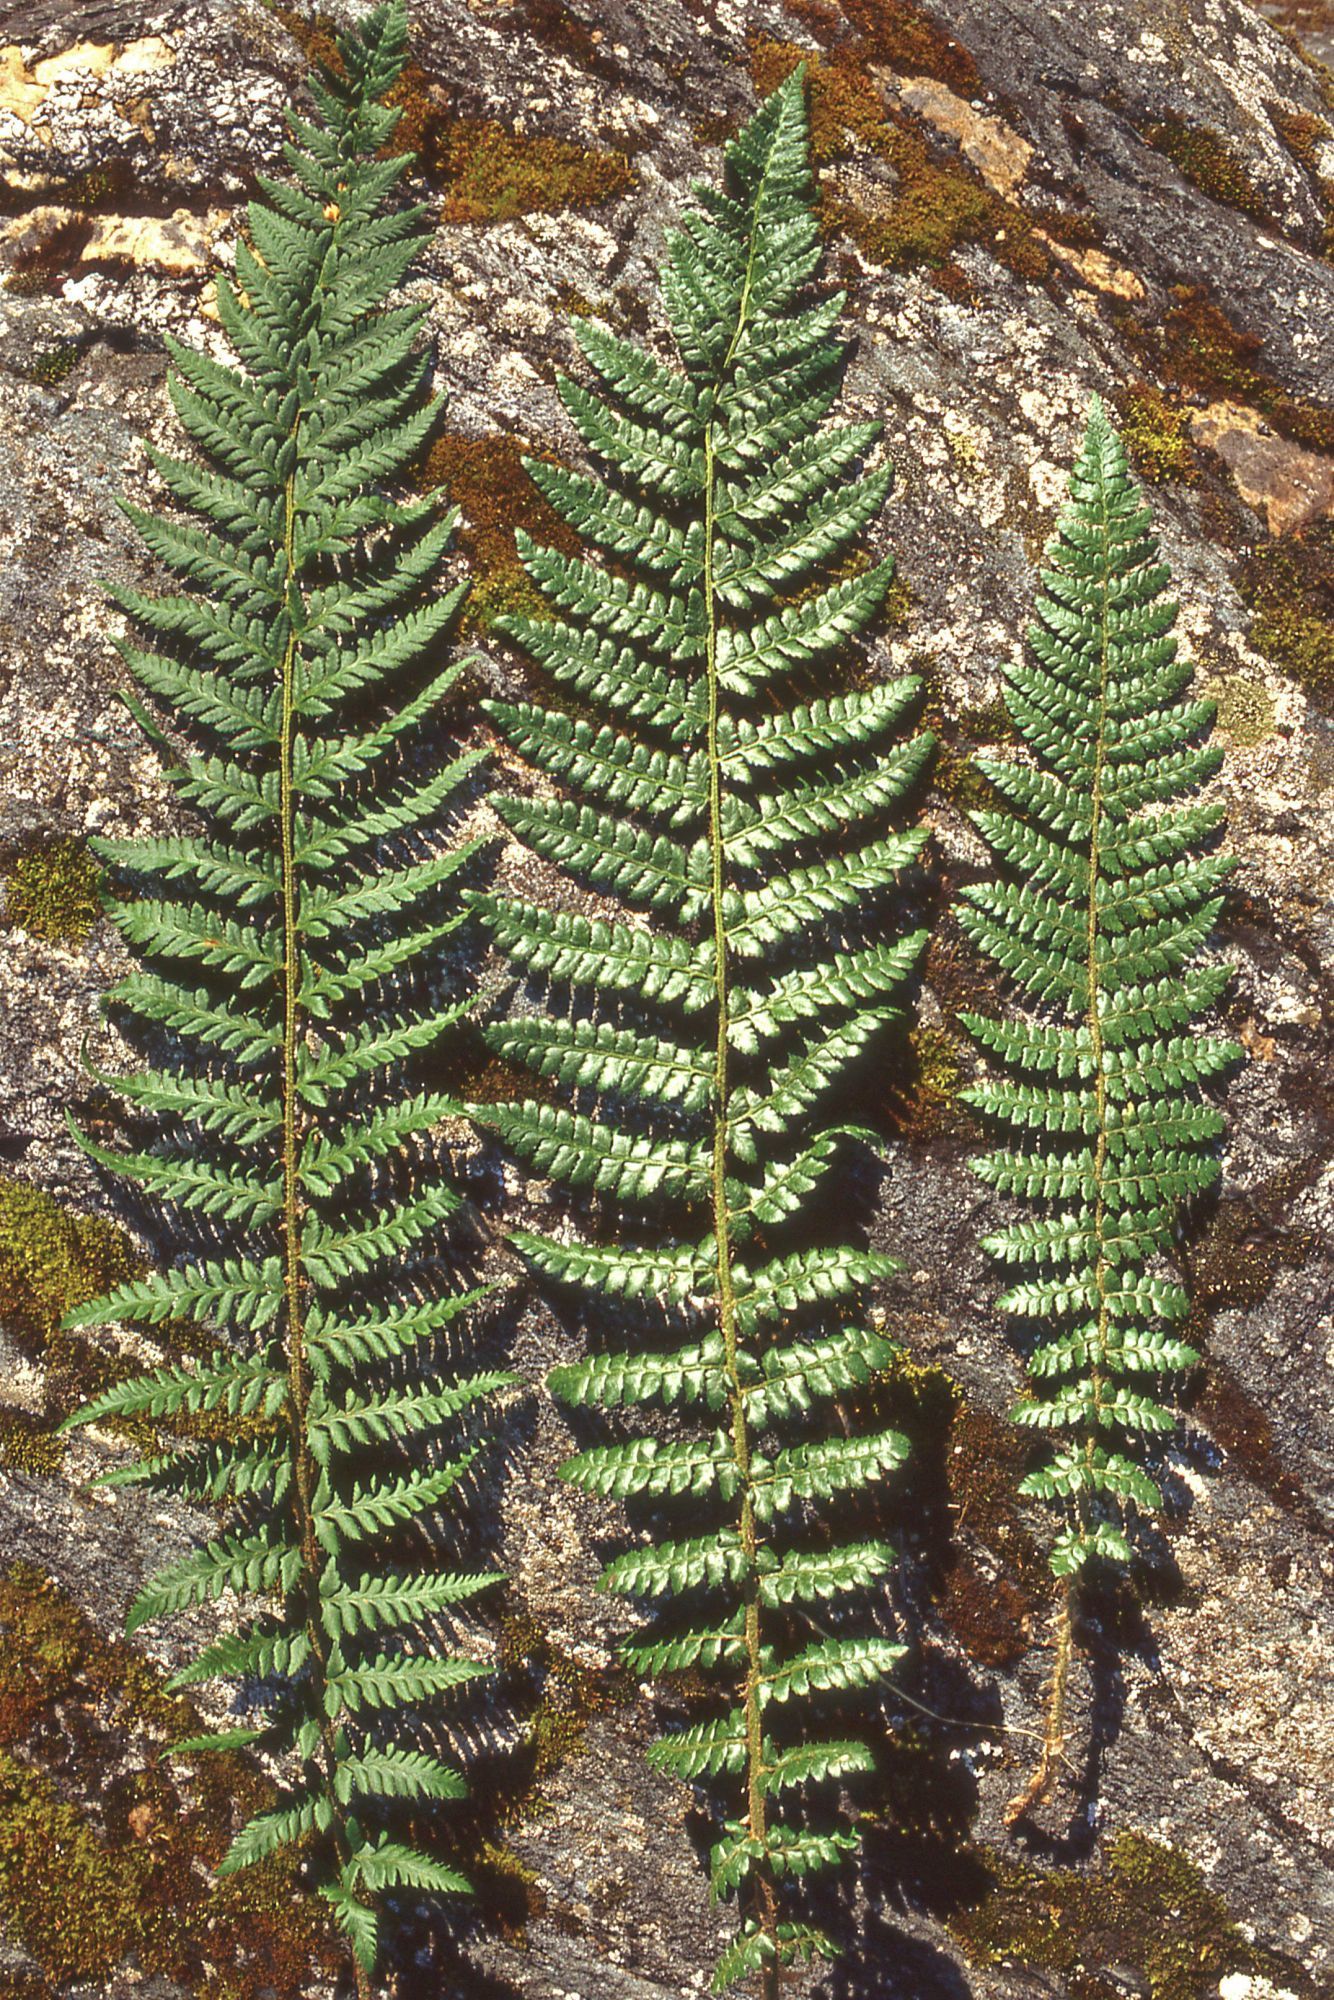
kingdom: Plantae
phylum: Tracheophyta
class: Polypodiopsida
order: Polypodiales
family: Dryopteridaceae
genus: Polystichum
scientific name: Polystichum braunii
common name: Braun's holly fern
